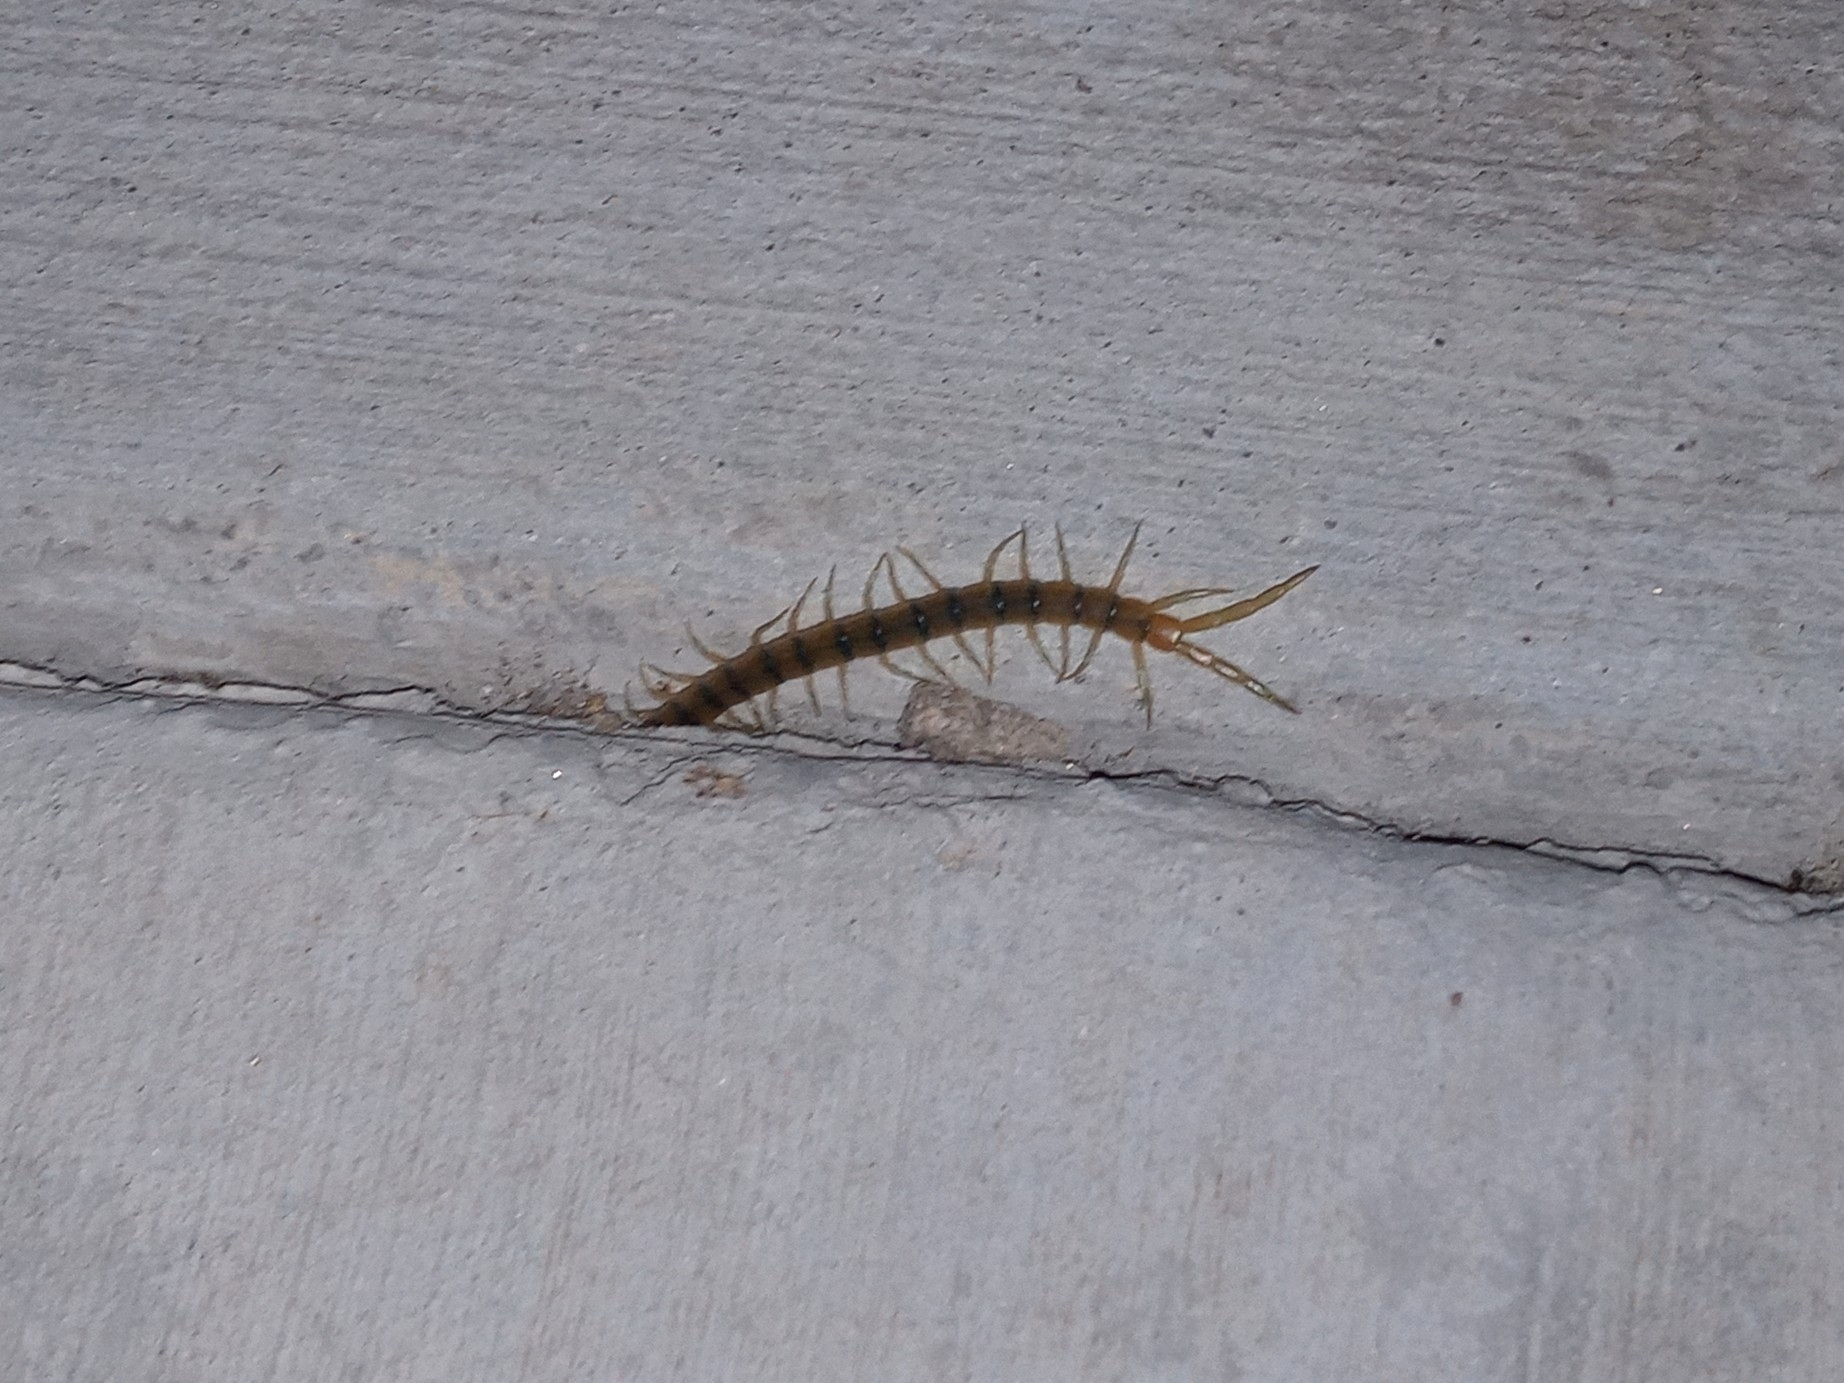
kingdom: Animalia
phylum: Arthropoda
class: Chilopoda
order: Scolopendromorpha
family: Scolopendridae
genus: Scolopendra
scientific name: Scolopendra polymorpha
